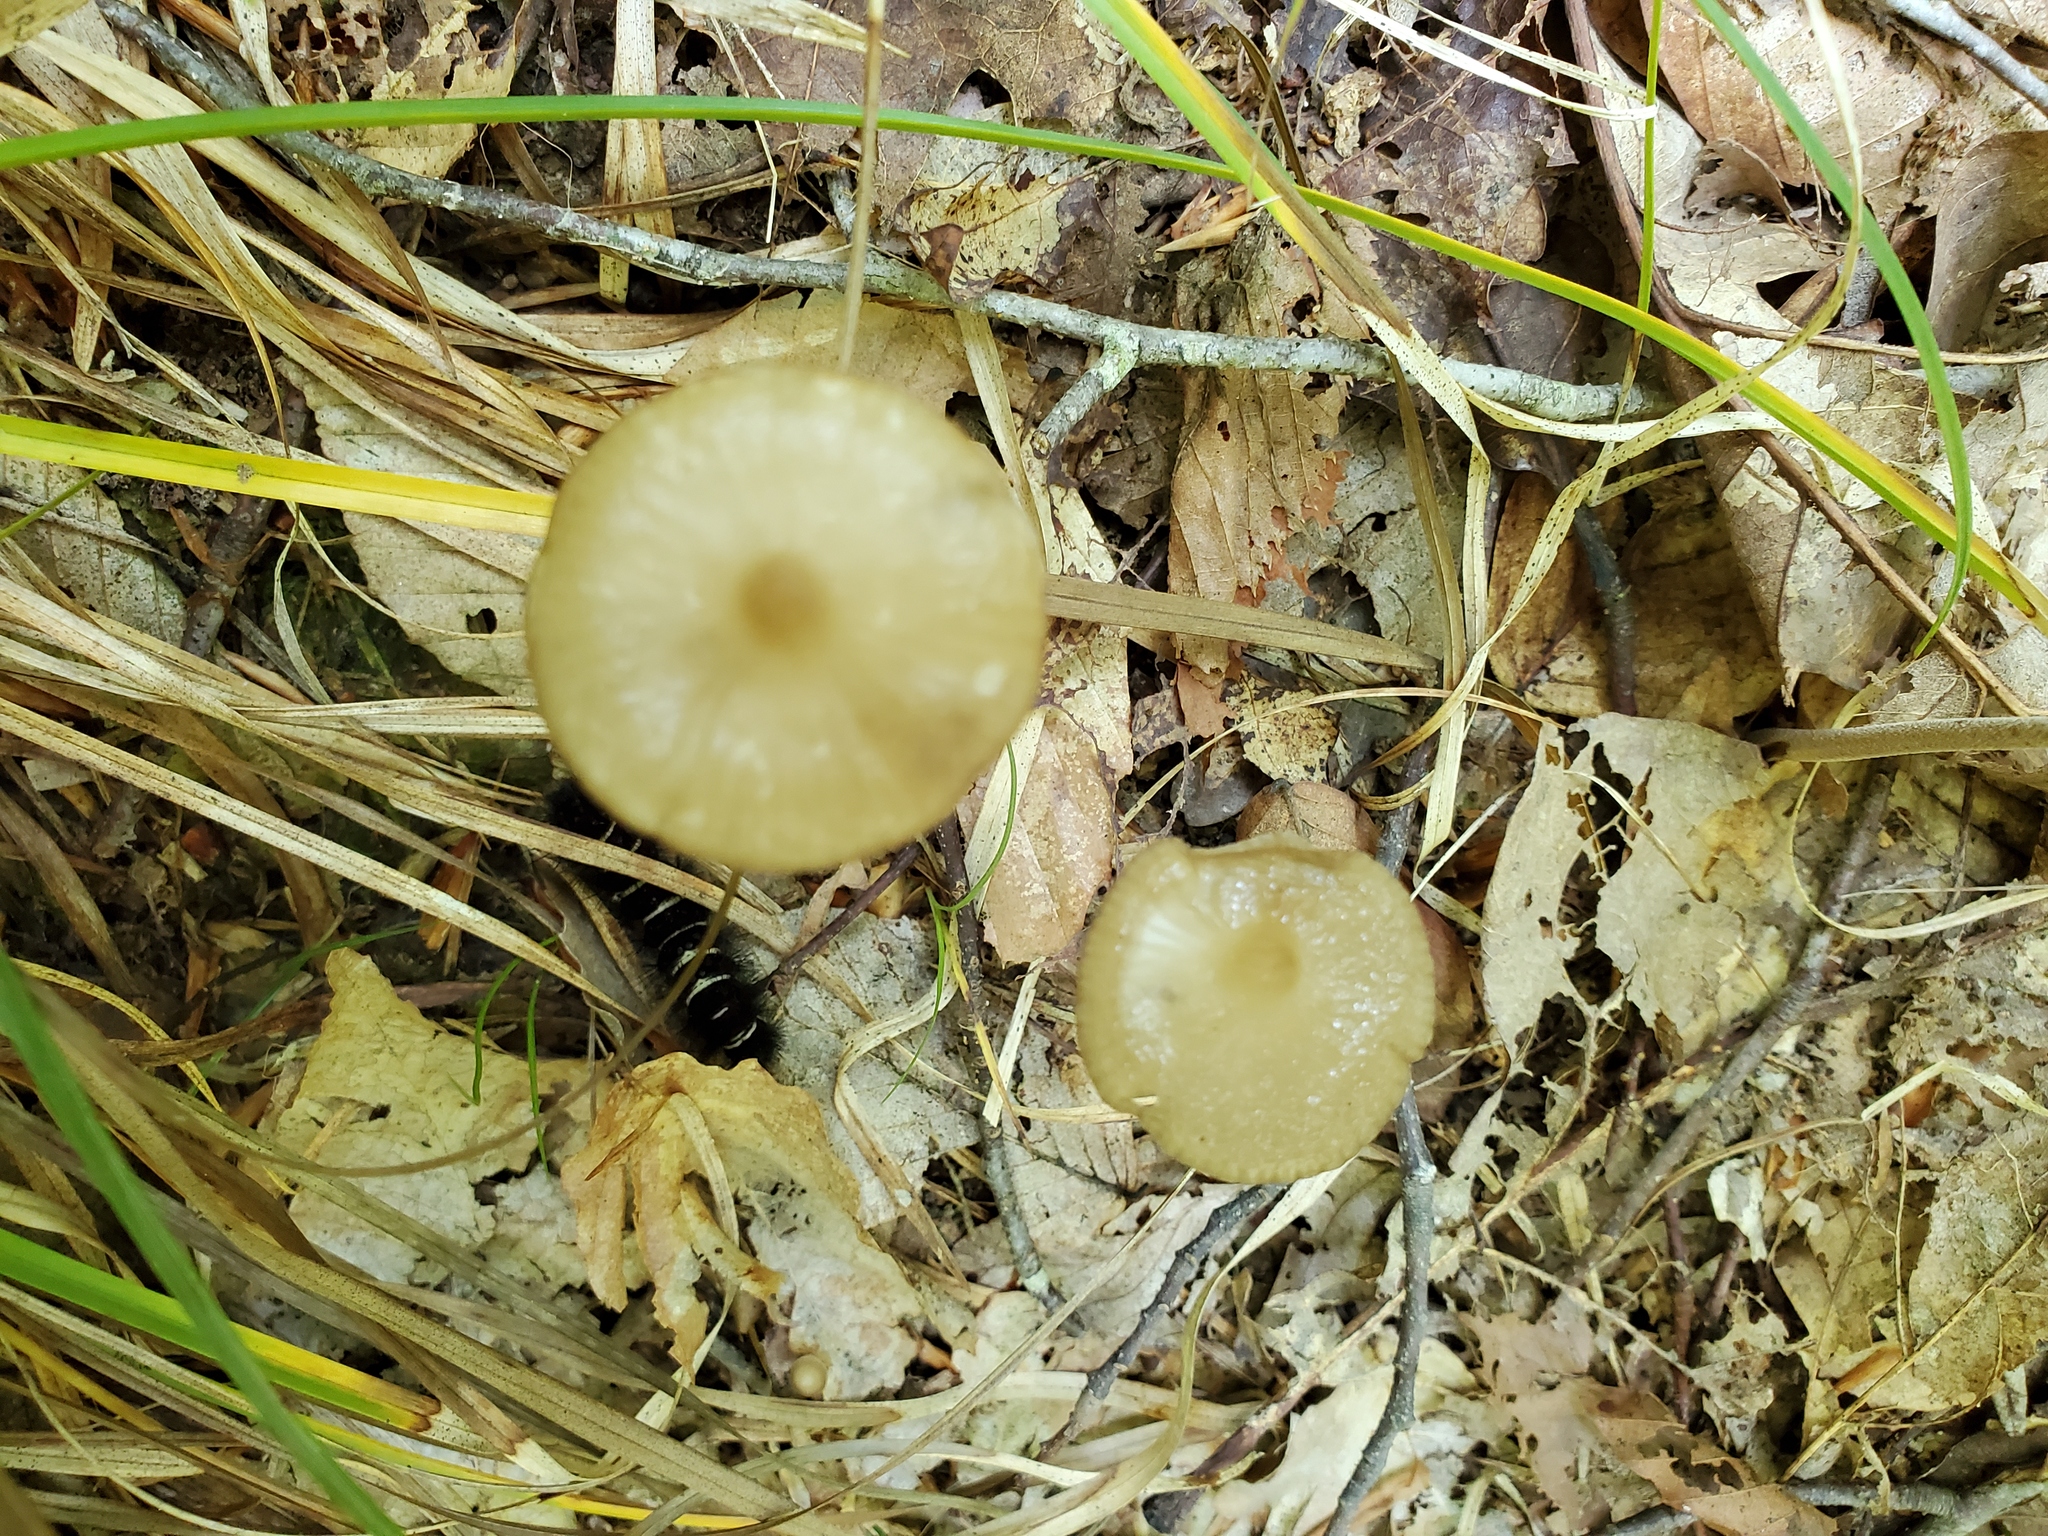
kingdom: Fungi
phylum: Basidiomycota
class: Agaricomycetes
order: Agaricales
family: Physalacriaceae
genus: Hymenopellis
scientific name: Hymenopellis furfuracea
